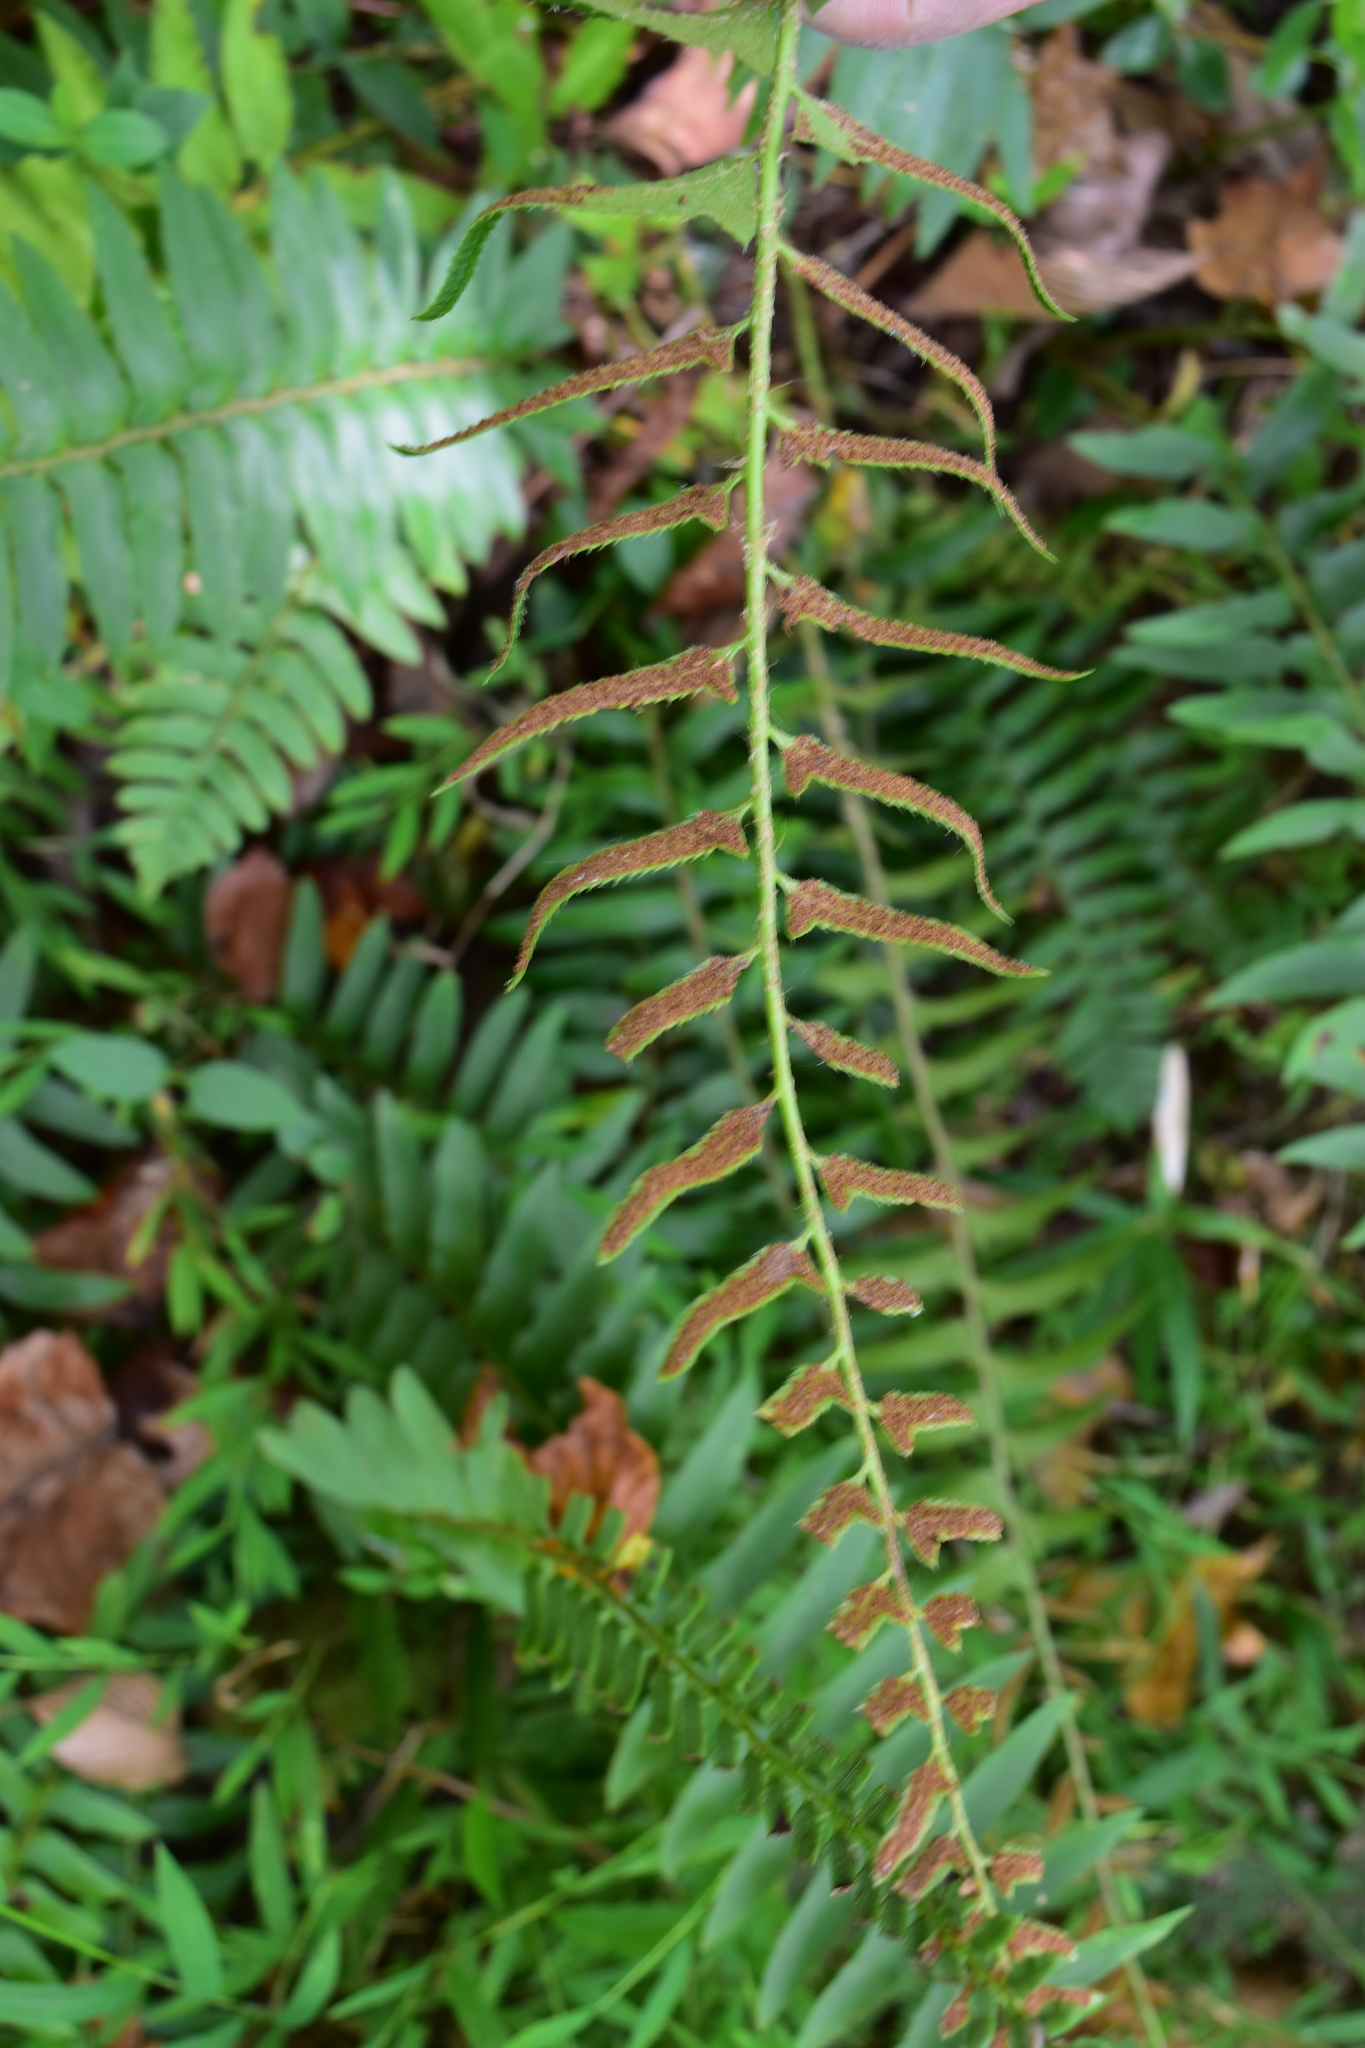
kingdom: Plantae
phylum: Tracheophyta
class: Polypodiopsida
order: Polypodiales
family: Dryopteridaceae
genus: Polystichum
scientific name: Polystichum acrostichoides
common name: Christmas fern
